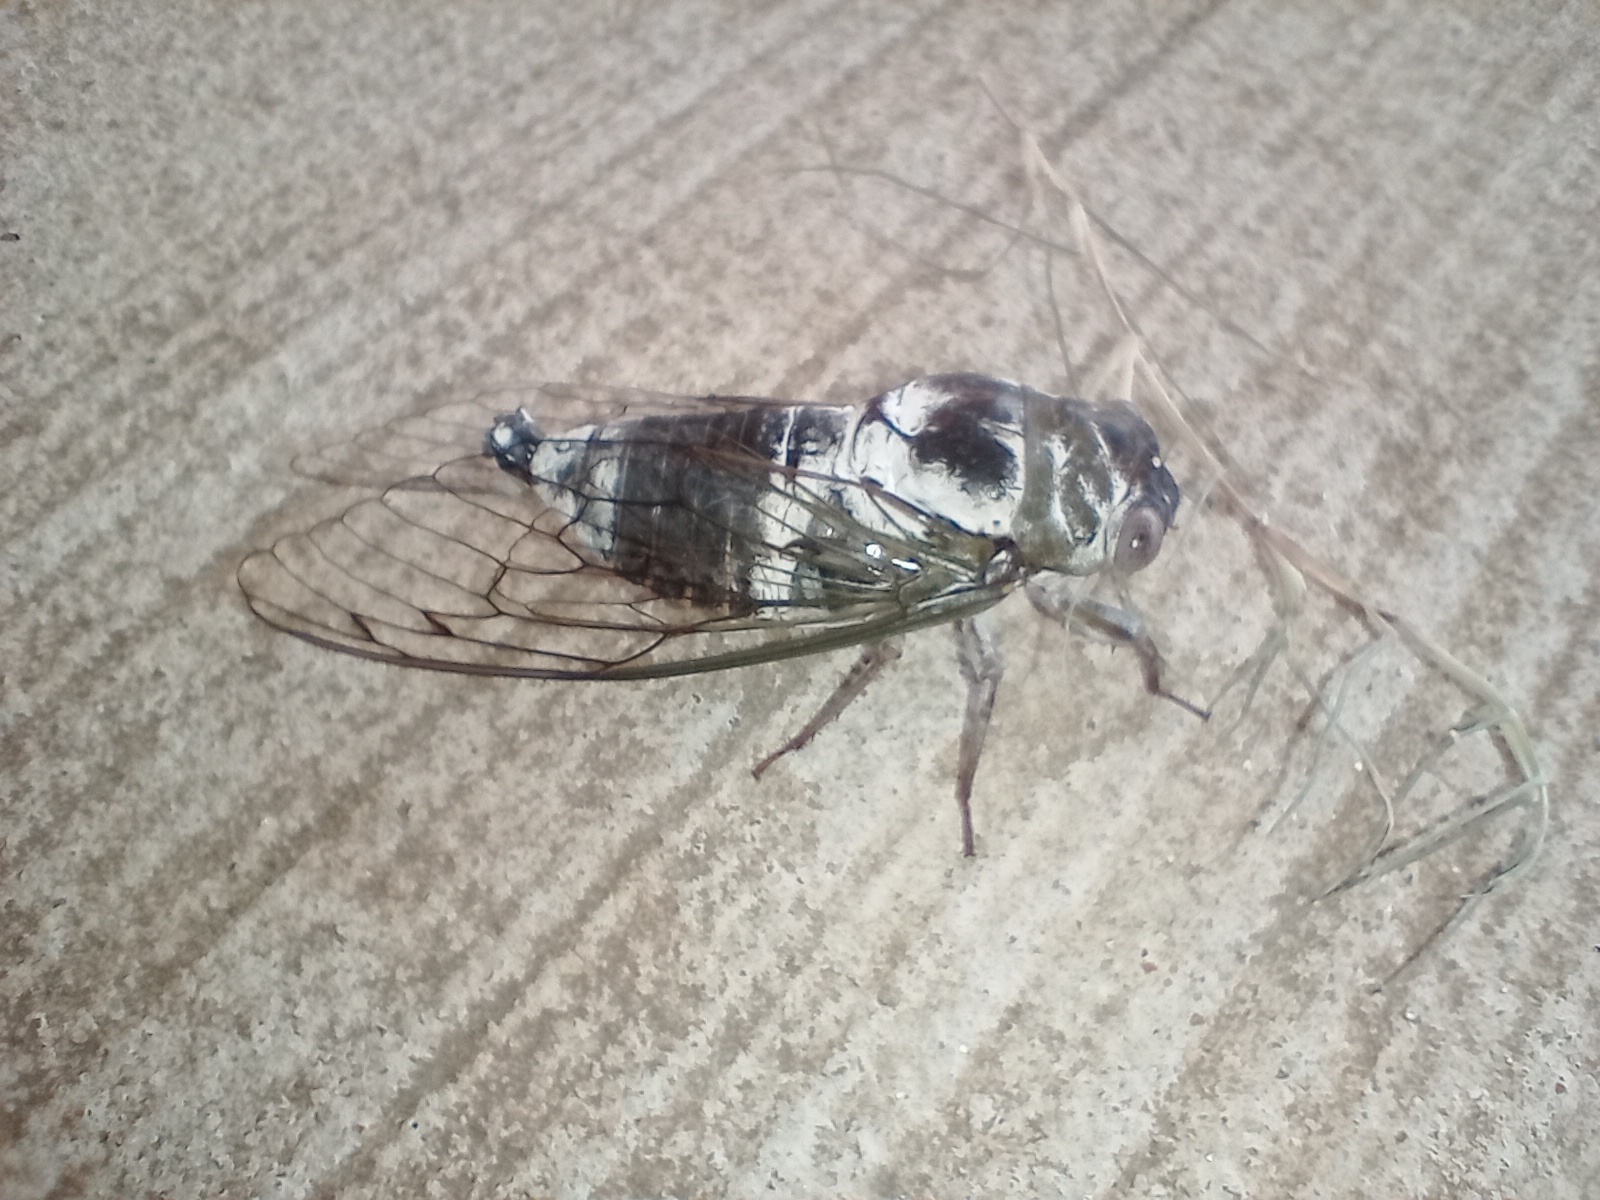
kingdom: Animalia
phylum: Arthropoda
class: Insecta
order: Hemiptera
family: Cicadidae
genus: Diceroprocta
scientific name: Diceroprocta grossa
